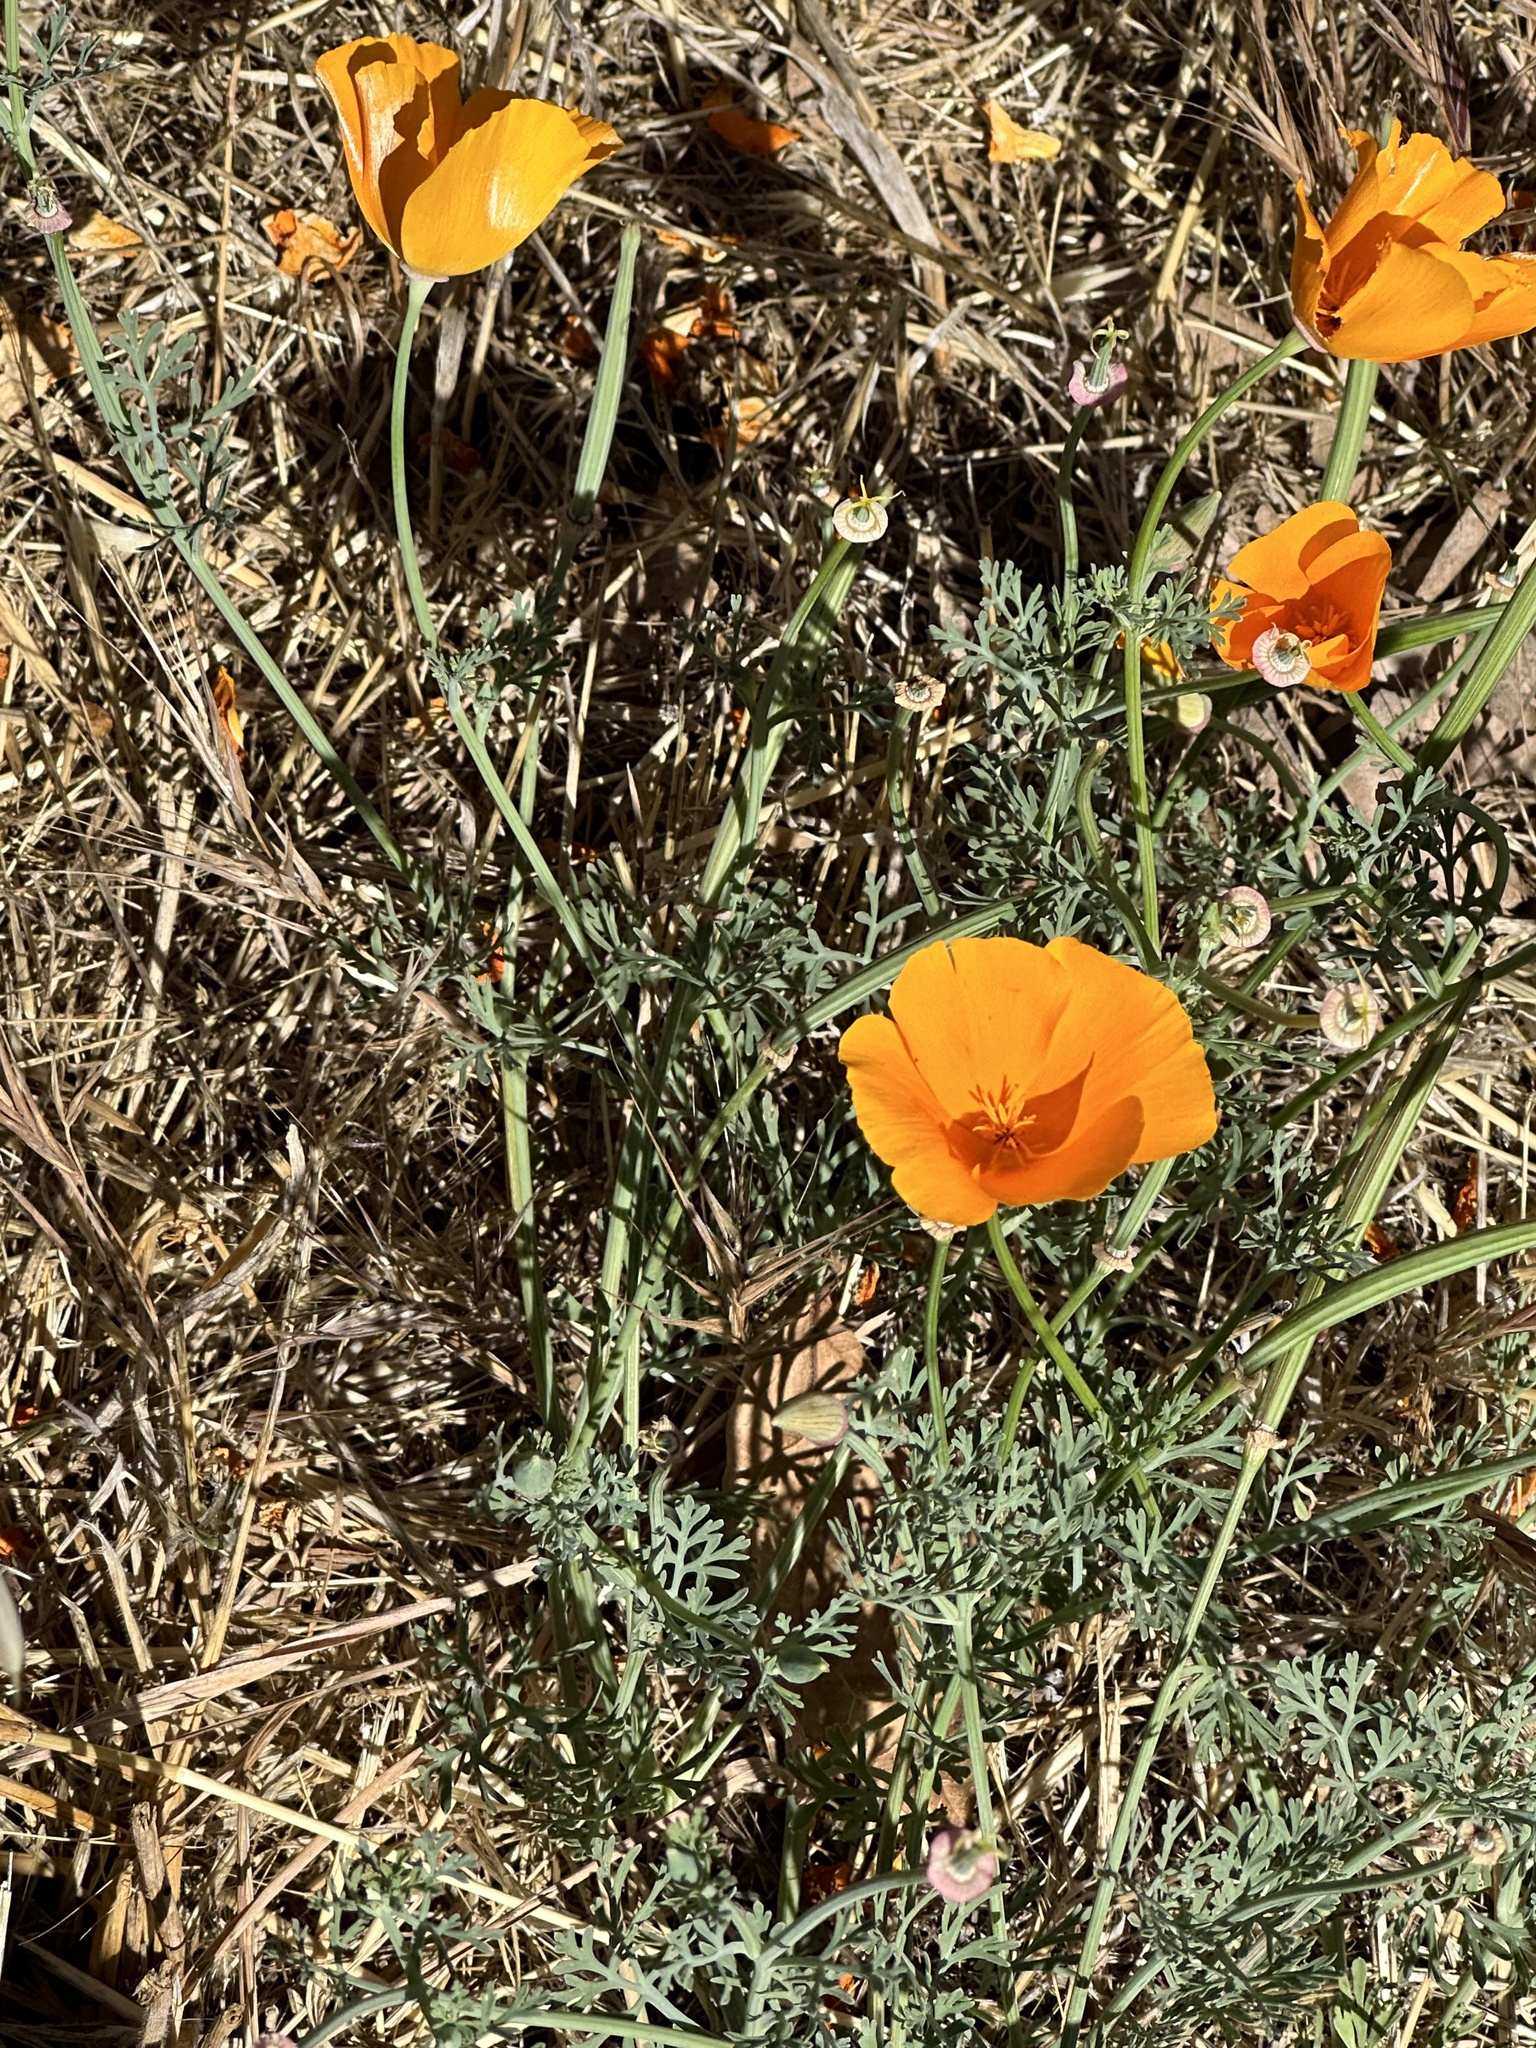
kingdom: Plantae
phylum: Tracheophyta
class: Magnoliopsida
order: Ranunculales
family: Papaveraceae
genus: Eschscholzia
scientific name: Eschscholzia californica
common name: California poppy
